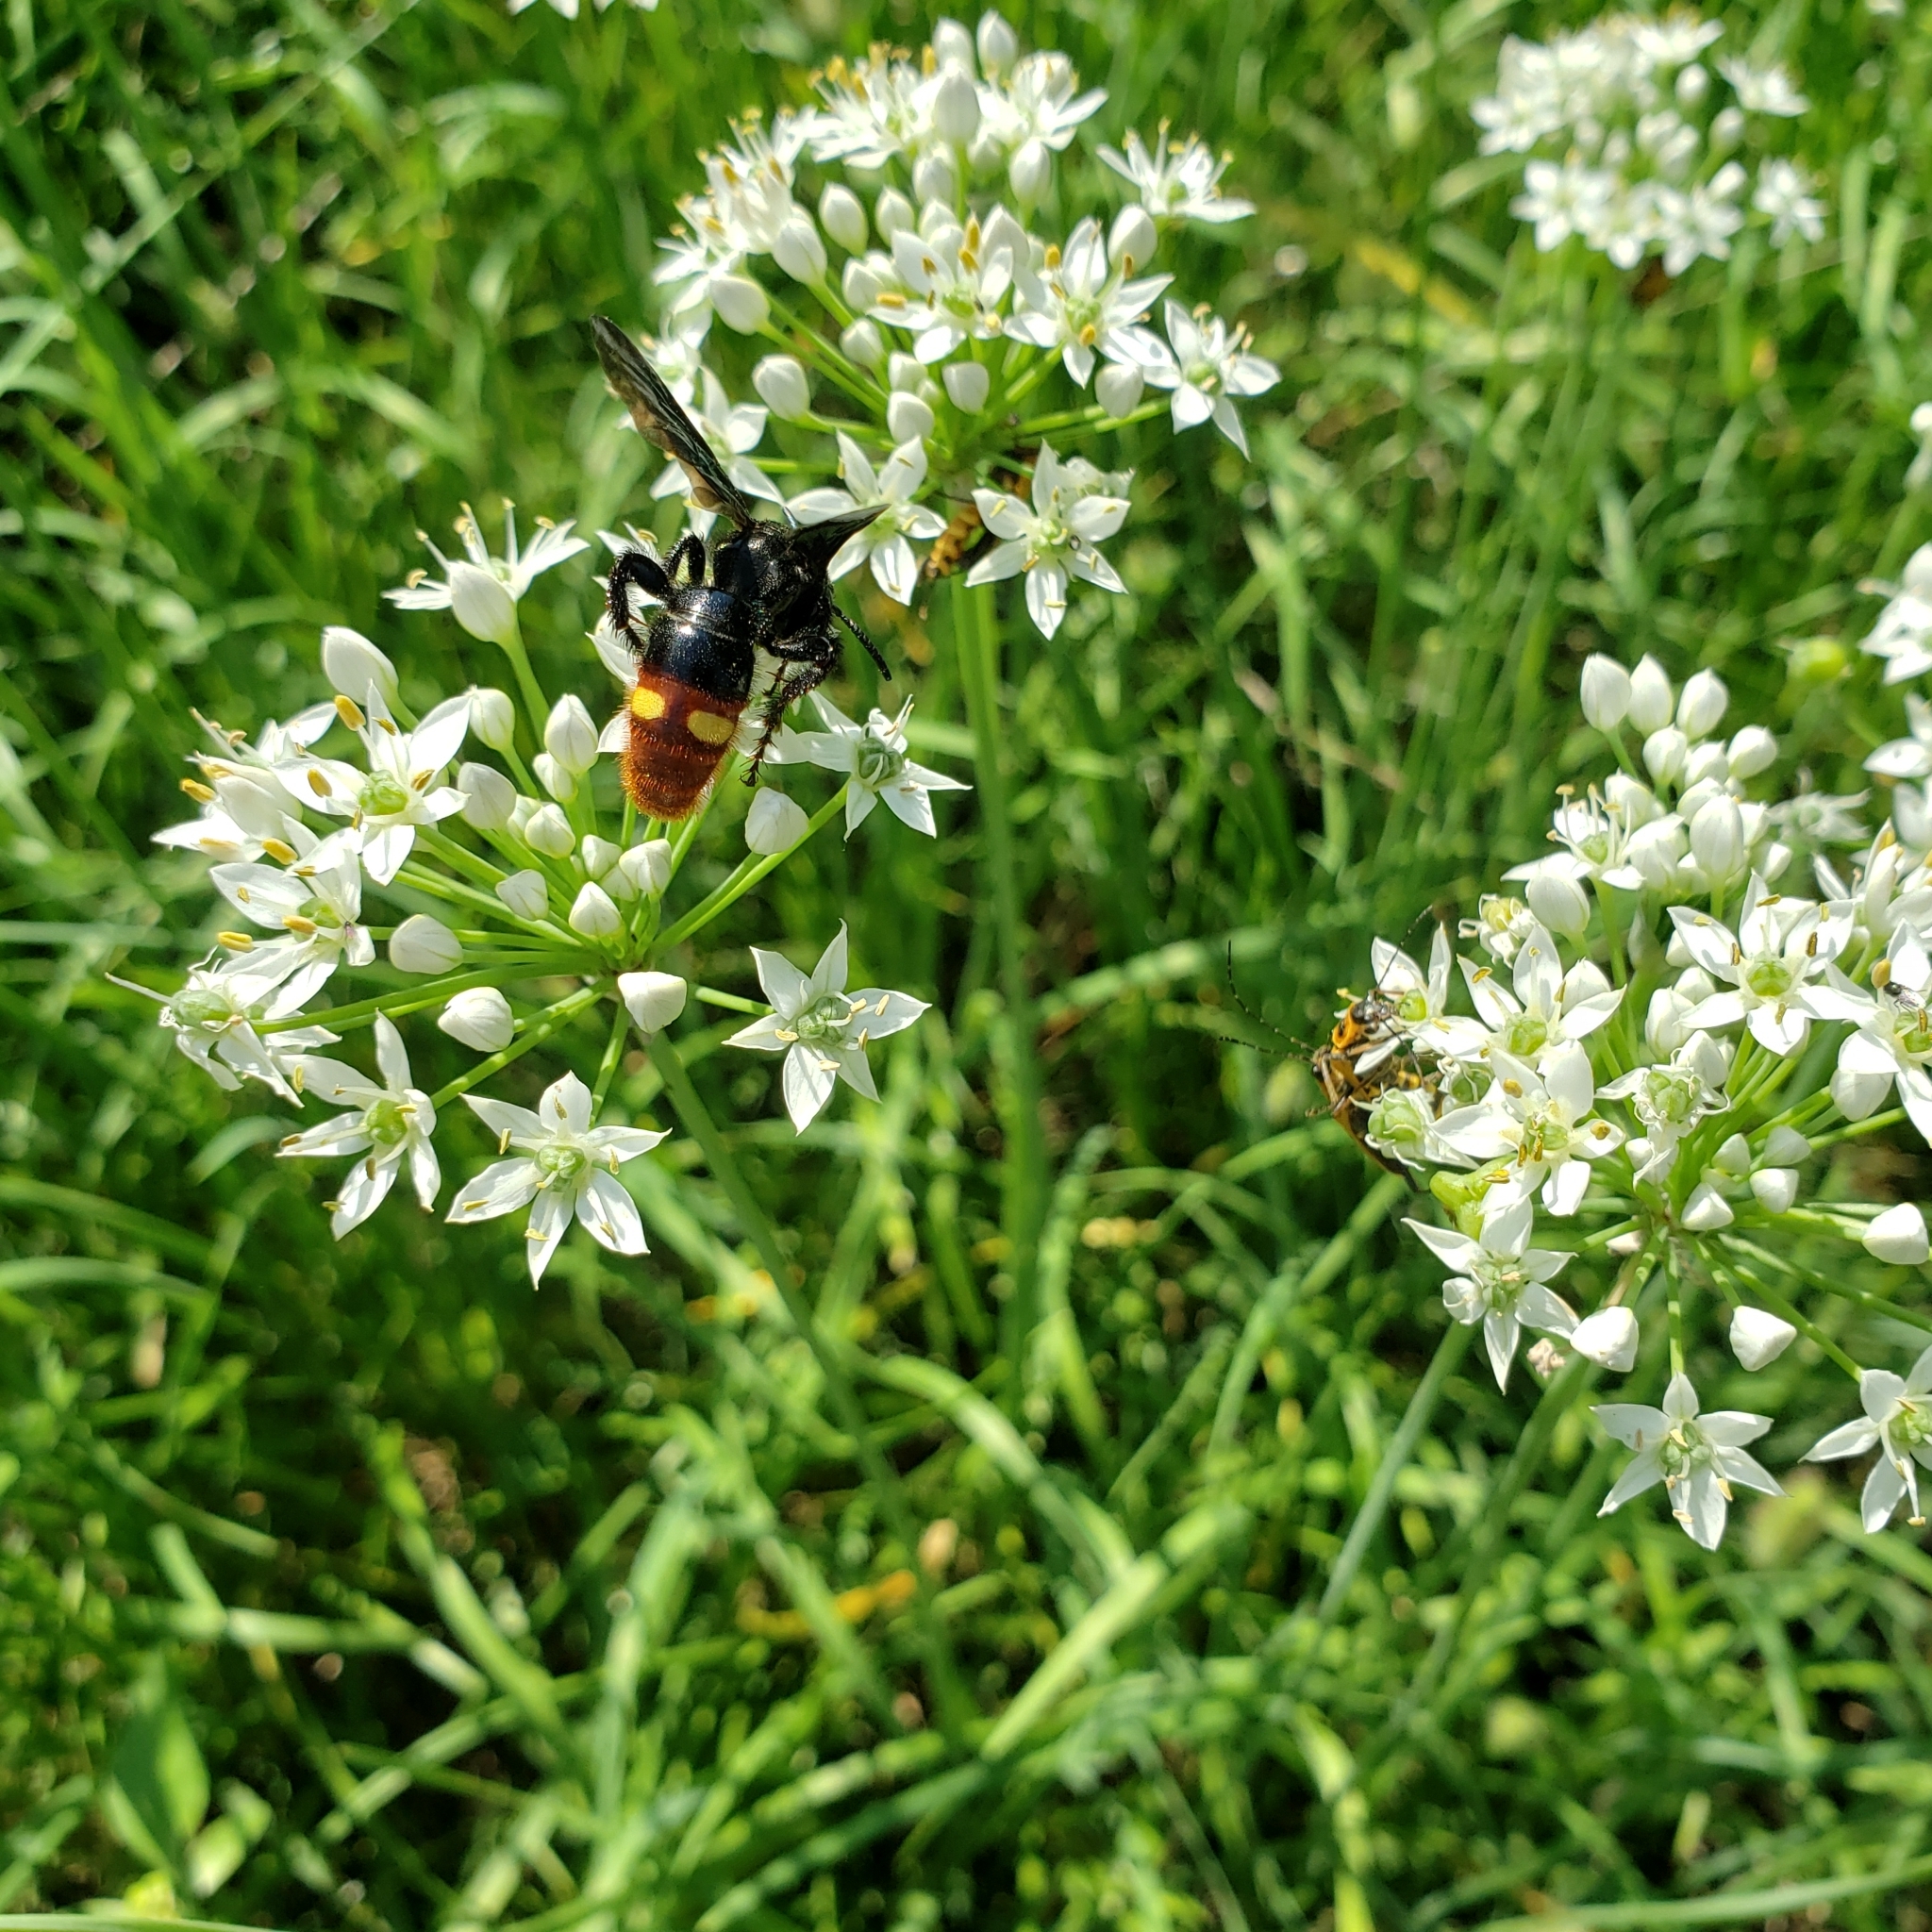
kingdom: Animalia
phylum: Arthropoda
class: Insecta
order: Hymenoptera
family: Scoliidae
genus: Scolia
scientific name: Scolia dubia
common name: Blue-winged scoliid wasp
